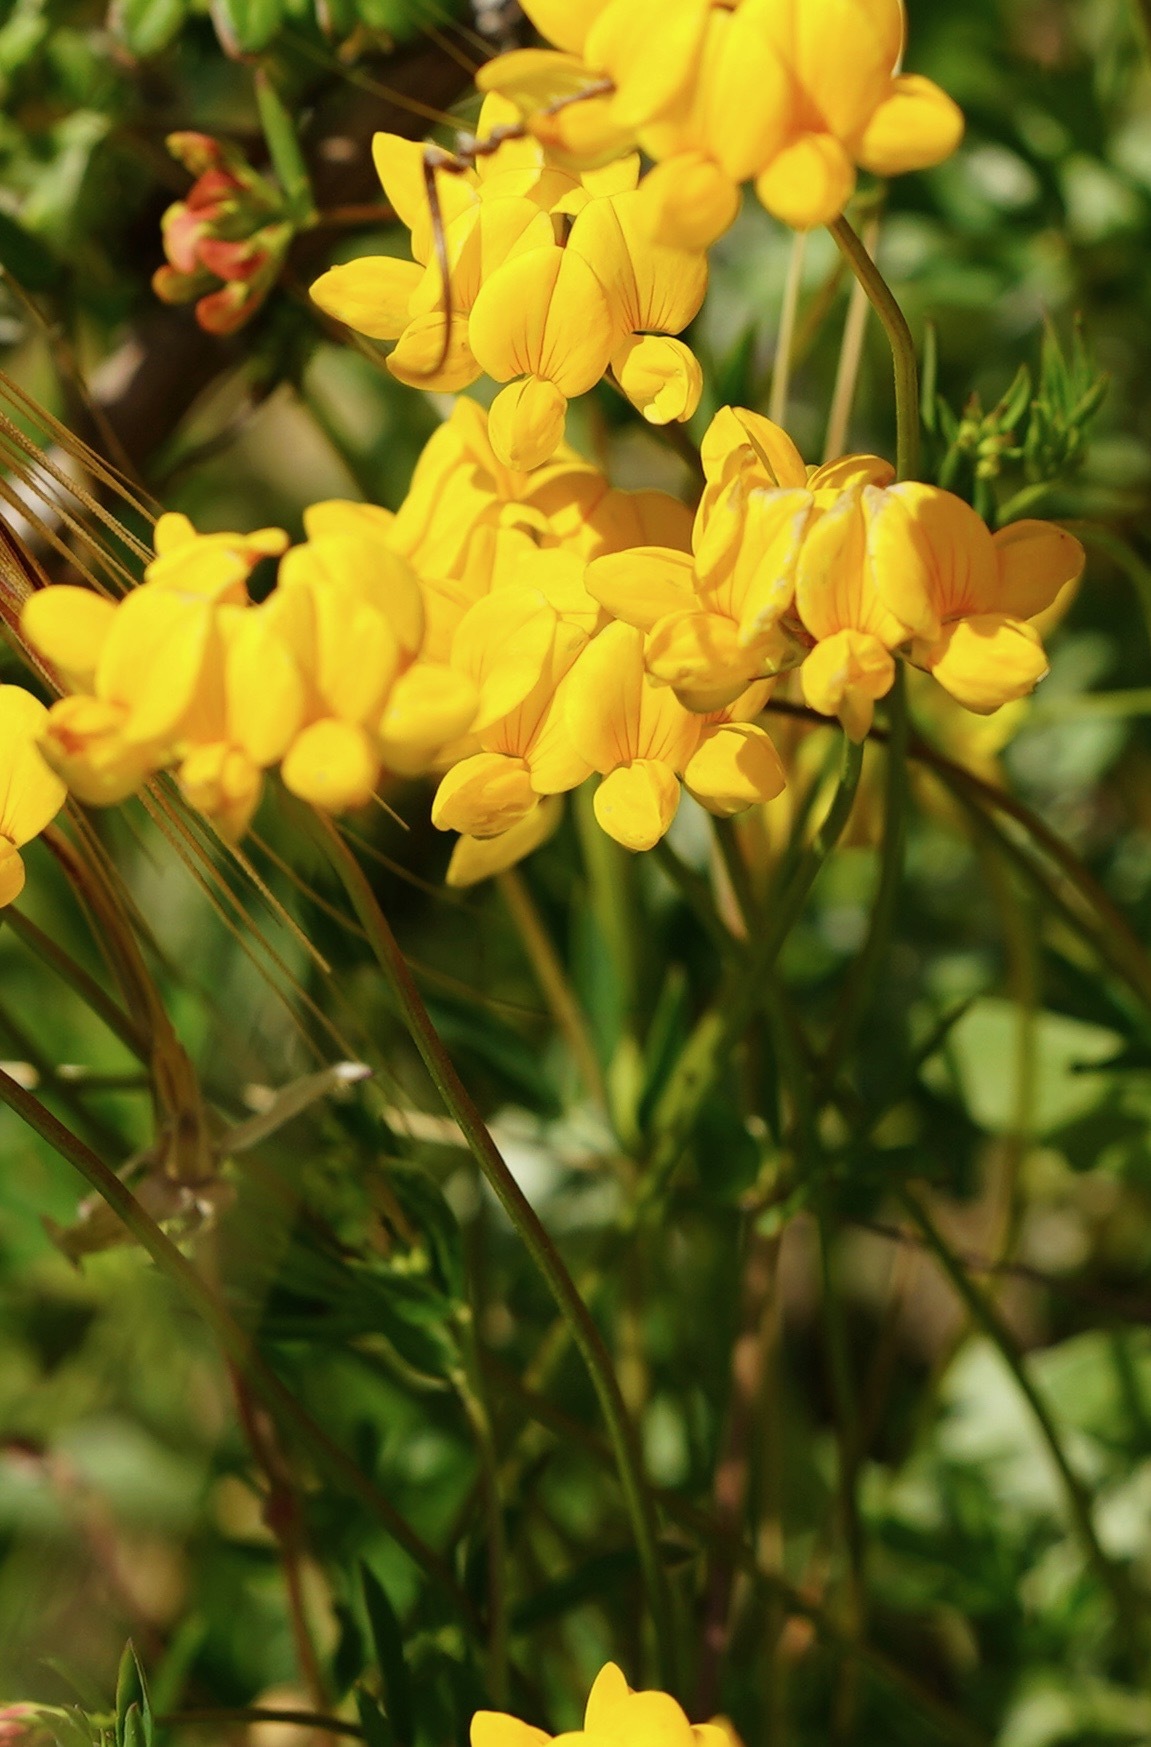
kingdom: Plantae
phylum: Tracheophyta
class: Magnoliopsida
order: Fabales
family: Fabaceae
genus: Lotus
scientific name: Lotus corniculatus
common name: Common bird's-foot-trefoil
